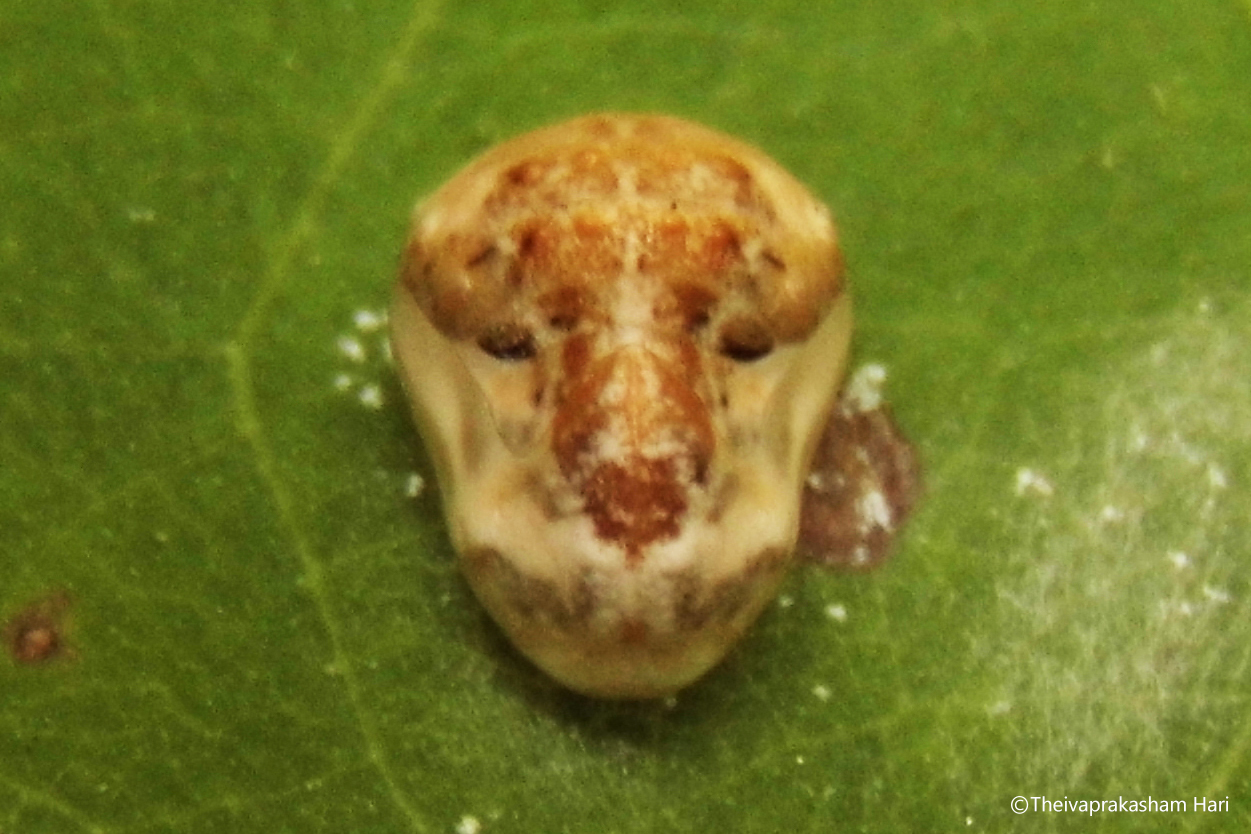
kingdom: Animalia
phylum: Arthropoda
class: Insecta
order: Lepidoptera
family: Lycaenidae
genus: Spalgis
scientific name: Spalgis epius
